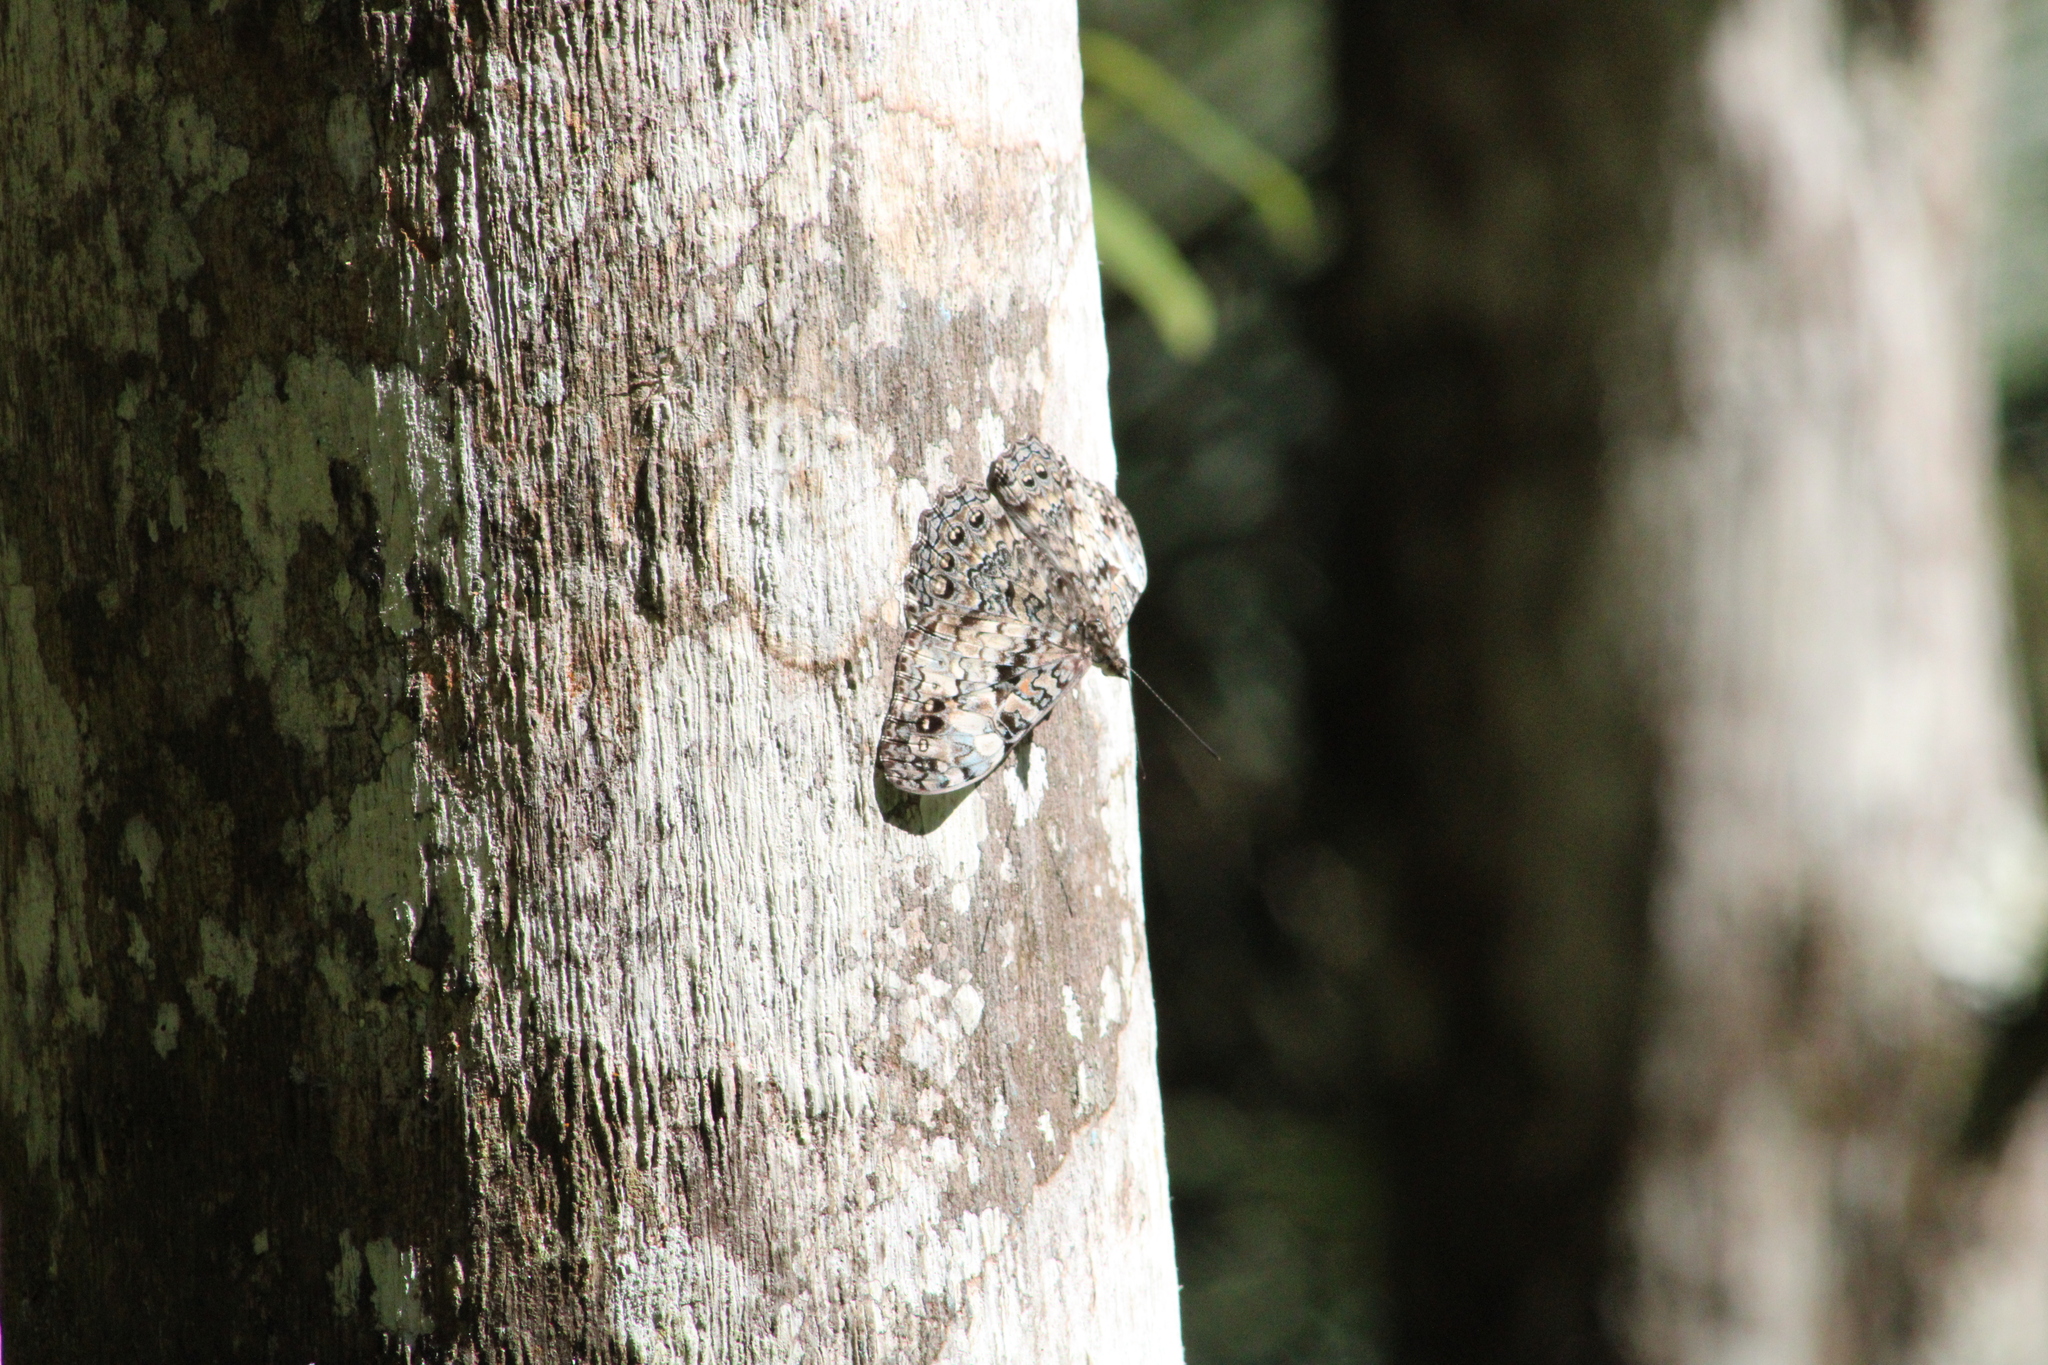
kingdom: Animalia
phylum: Arthropoda
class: Insecta
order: Lepidoptera
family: Nymphalidae
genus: Hamadryas
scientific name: Hamadryas epinome
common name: Epinome cracker
